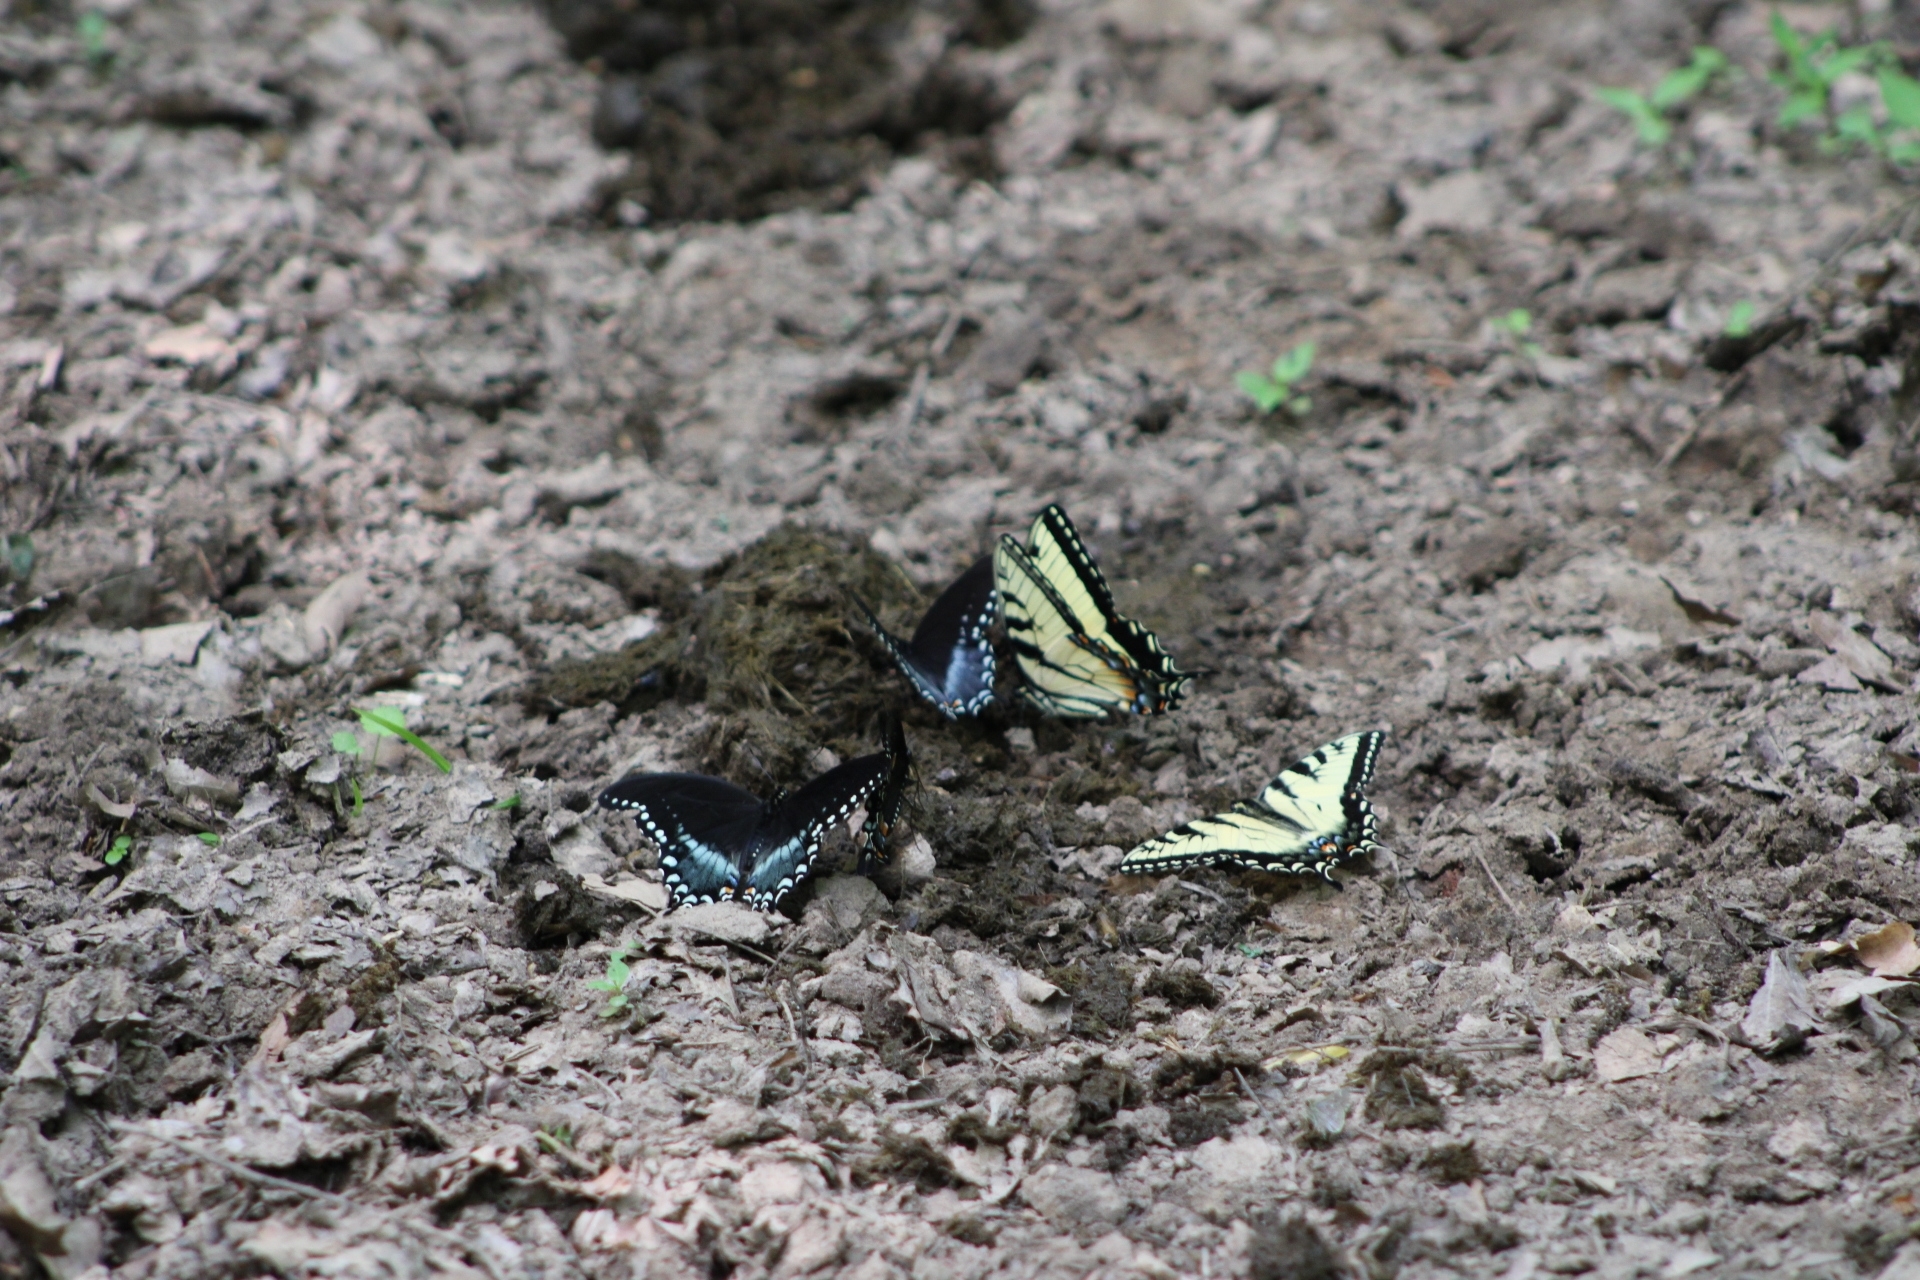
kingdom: Animalia
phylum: Arthropoda
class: Insecta
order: Lepidoptera
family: Papilionidae
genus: Papilio
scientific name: Papilio glaucus
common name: Tiger swallowtail
